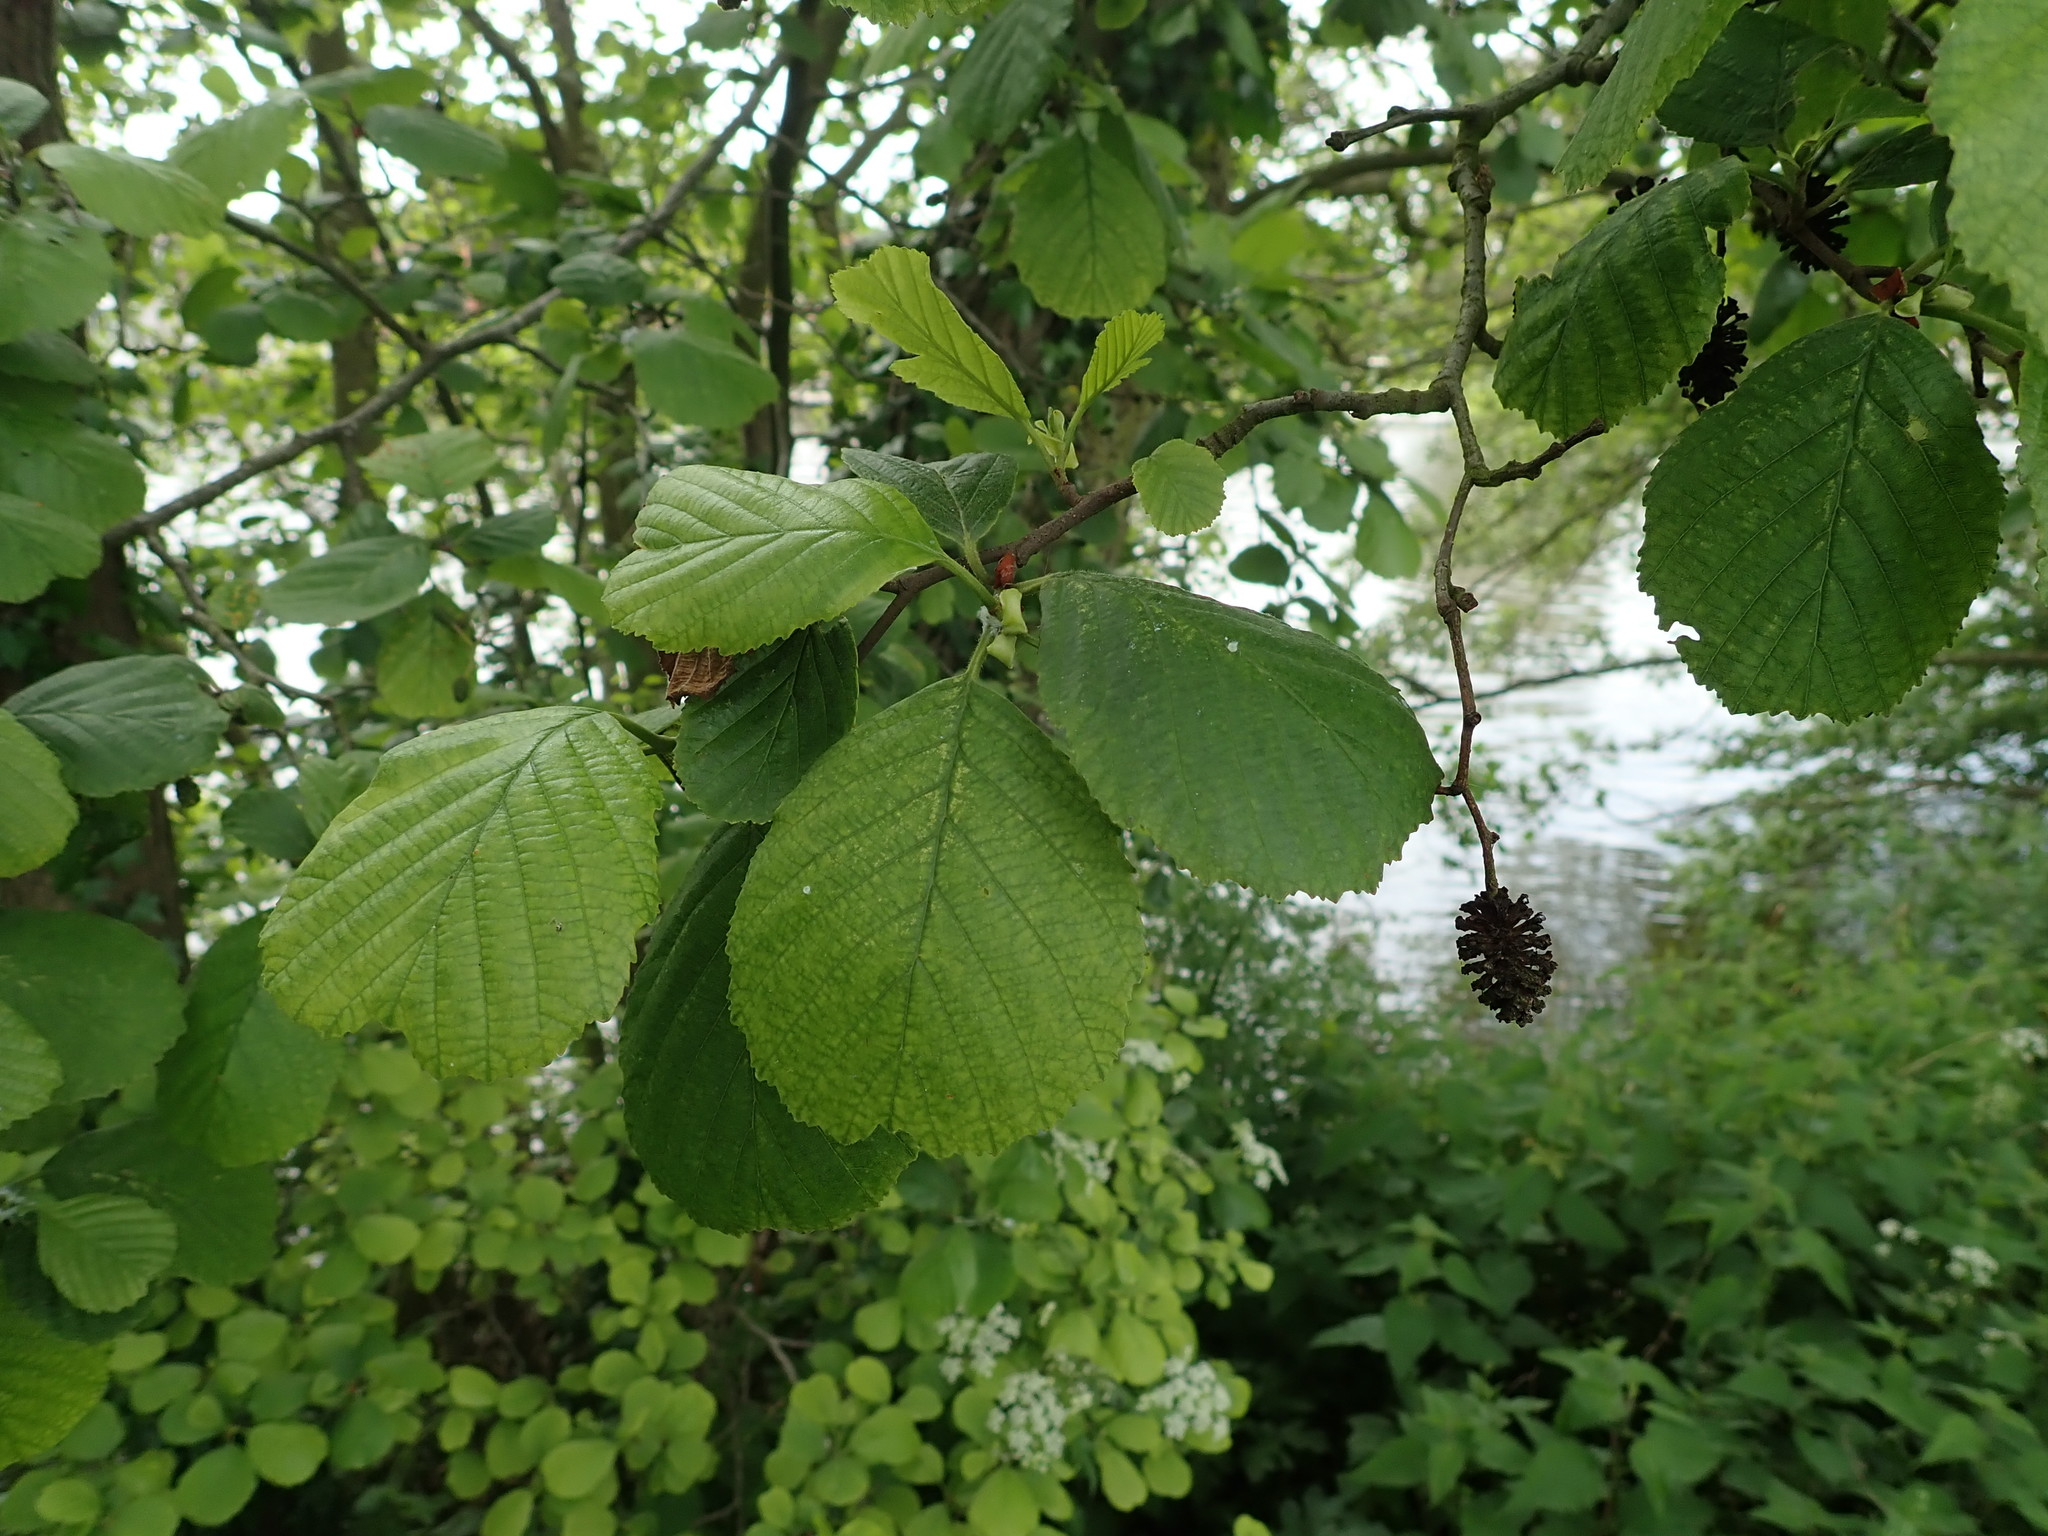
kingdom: Plantae
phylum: Tracheophyta
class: Magnoliopsida
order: Fagales
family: Betulaceae
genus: Alnus
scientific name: Alnus glutinosa
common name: Black alder
